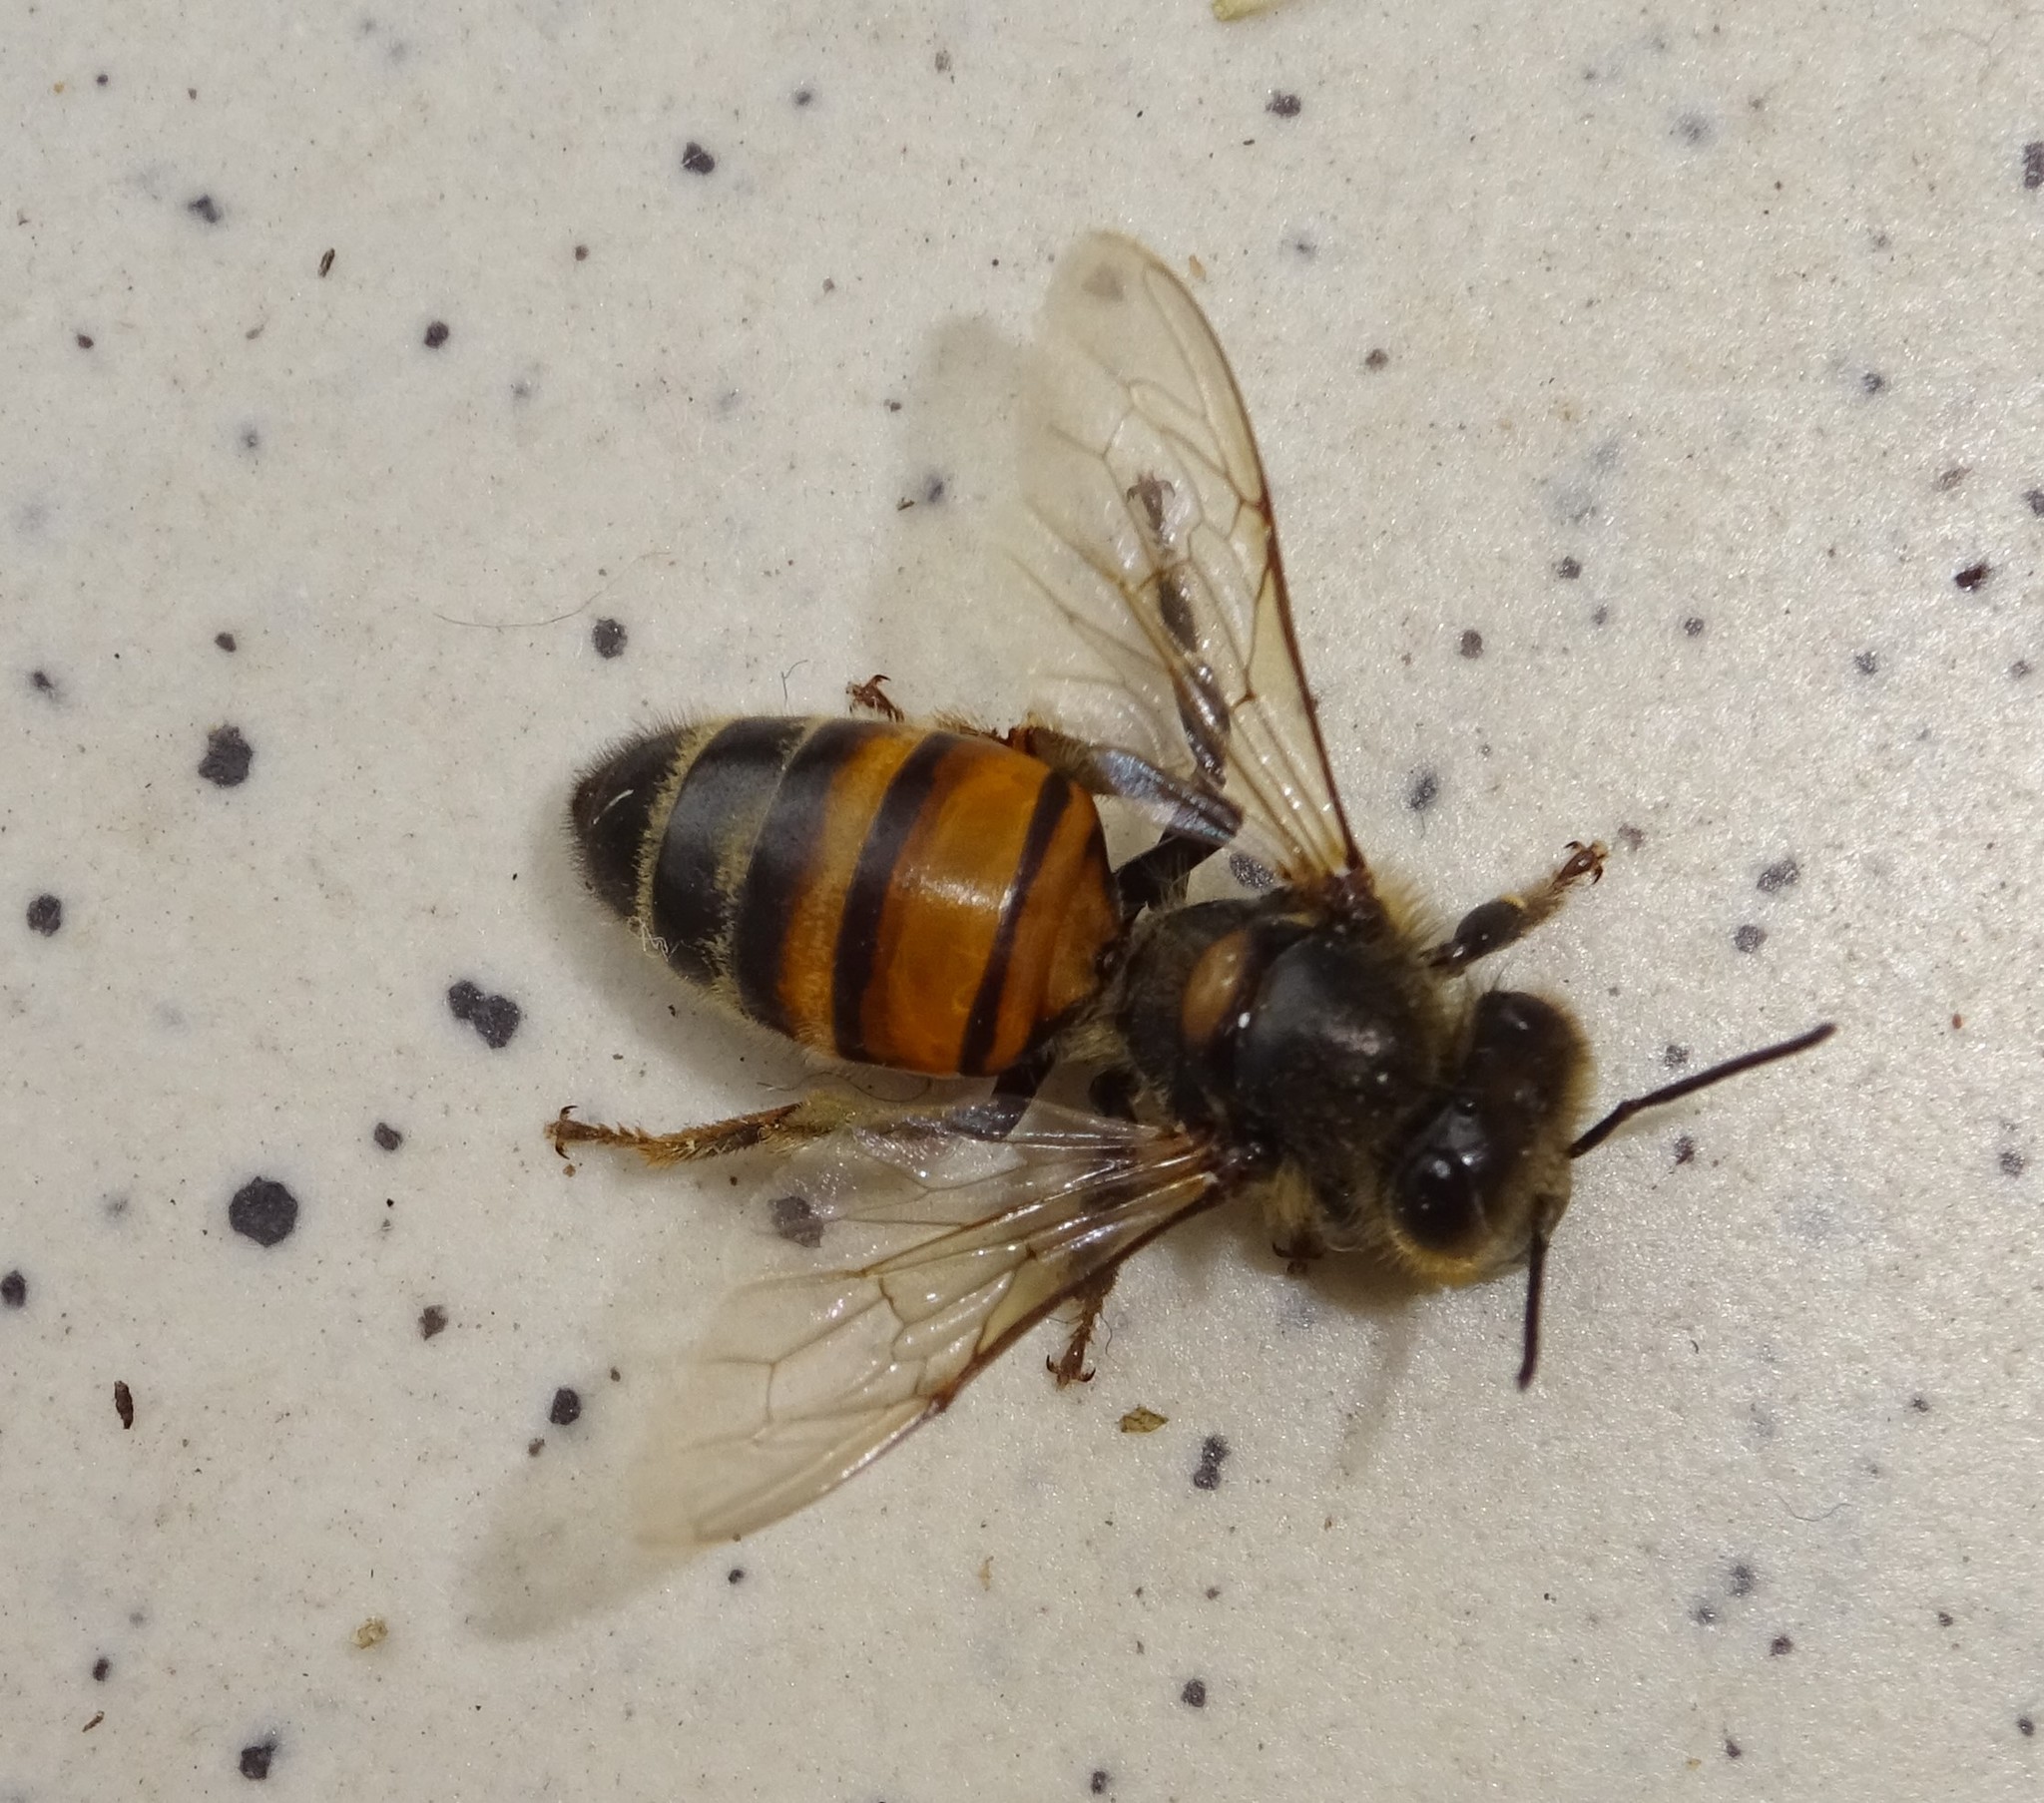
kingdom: Animalia
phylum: Arthropoda
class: Insecta
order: Hymenoptera
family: Apidae
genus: Apis
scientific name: Apis mellifera
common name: Honey bee
